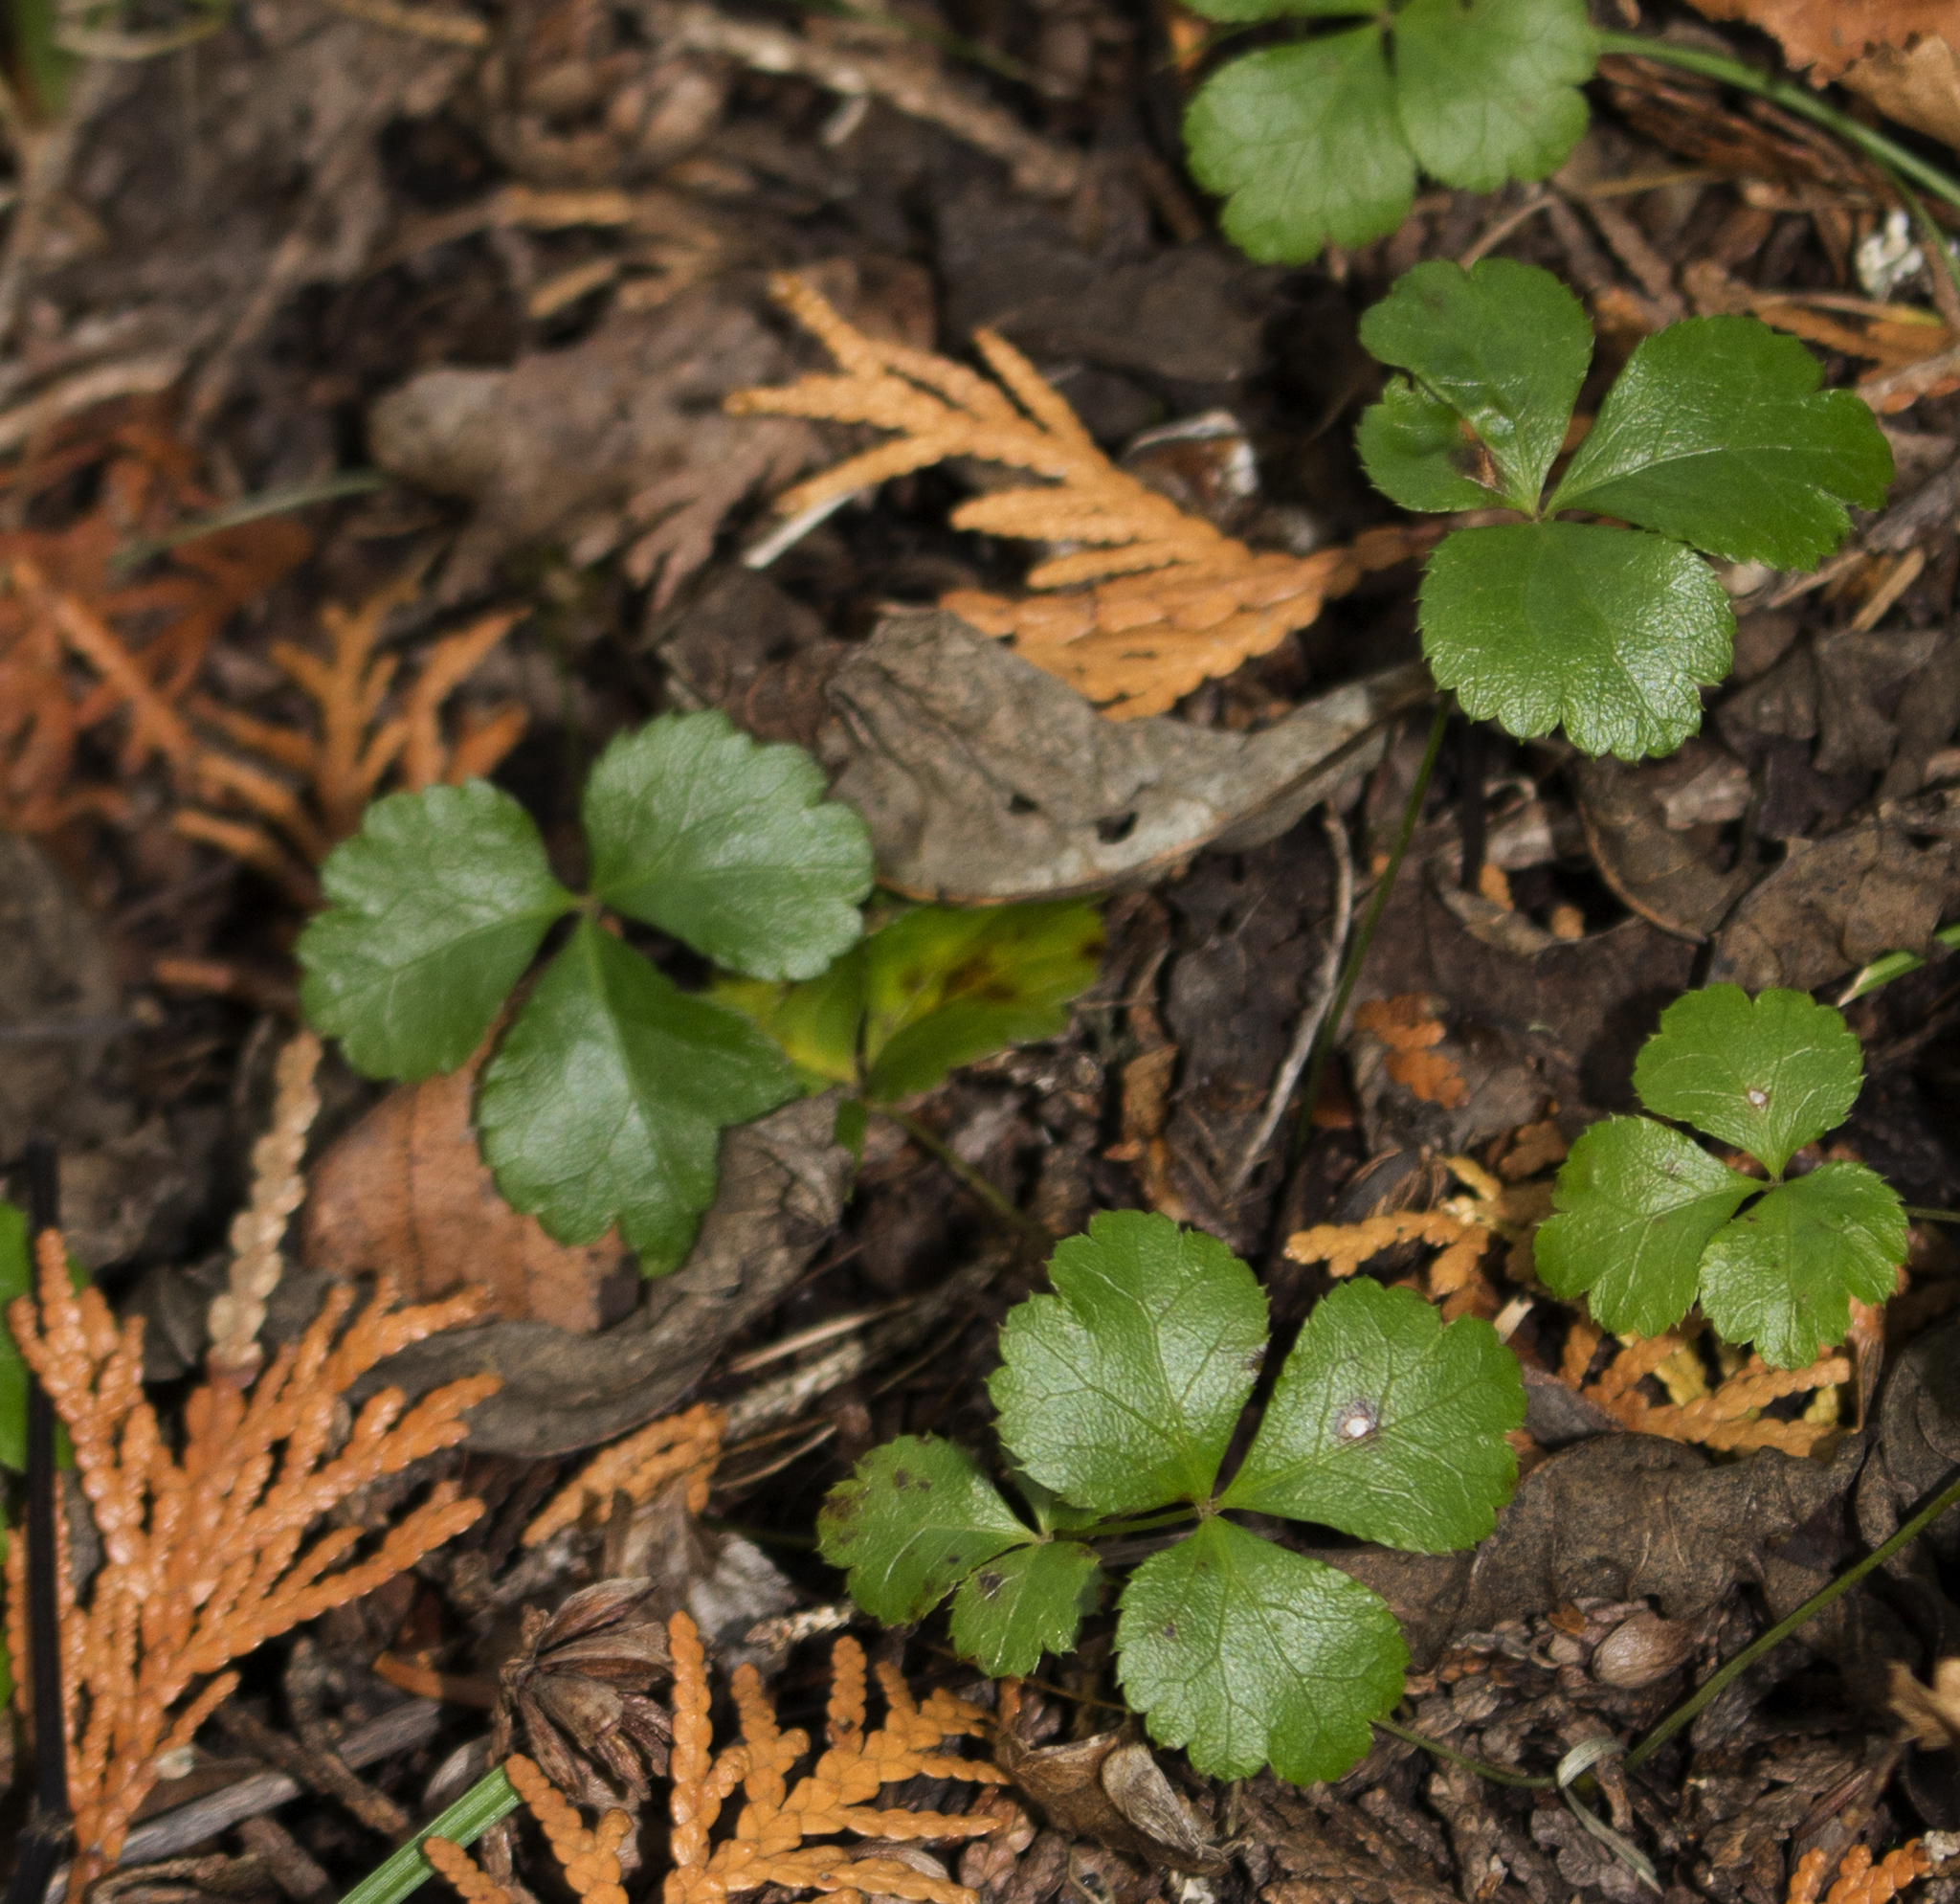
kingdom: Plantae
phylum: Tracheophyta
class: Magnoliopsida
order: Ranunculales
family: Ranunculaceae
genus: Coptis
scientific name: Coptis trifolia
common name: Canker-root
